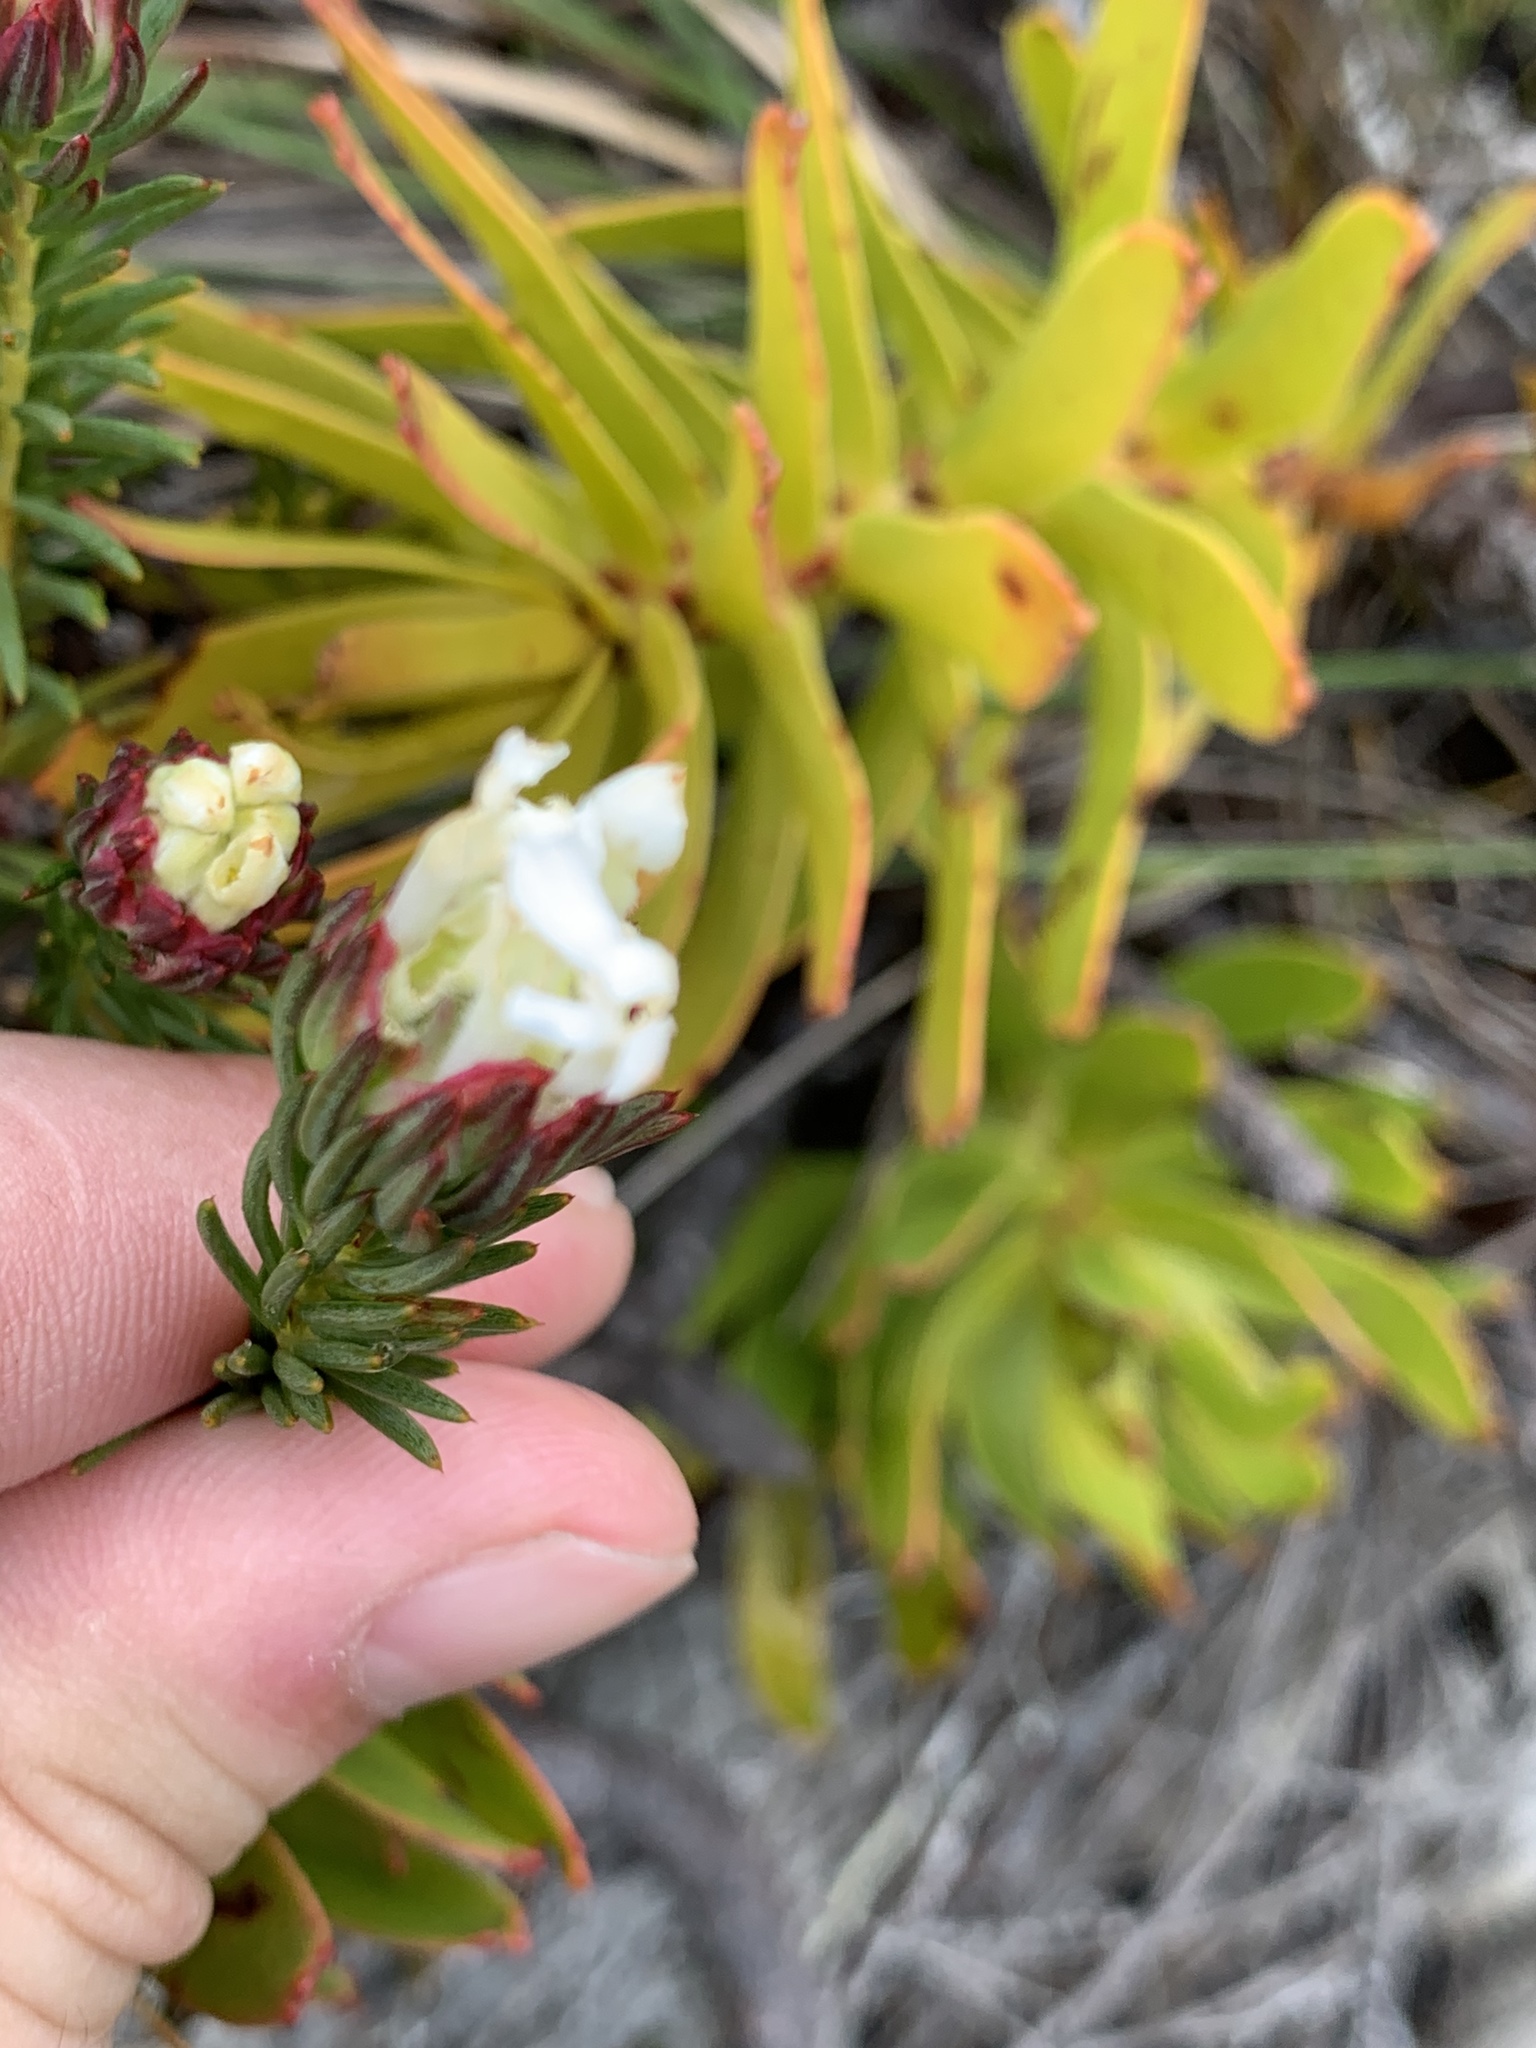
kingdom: Plantae
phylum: Tracheophyta
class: Magnoliopsida
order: Malvales
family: Thymelaeaceae
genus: Gnidia
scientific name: Gnidia pinifolia
